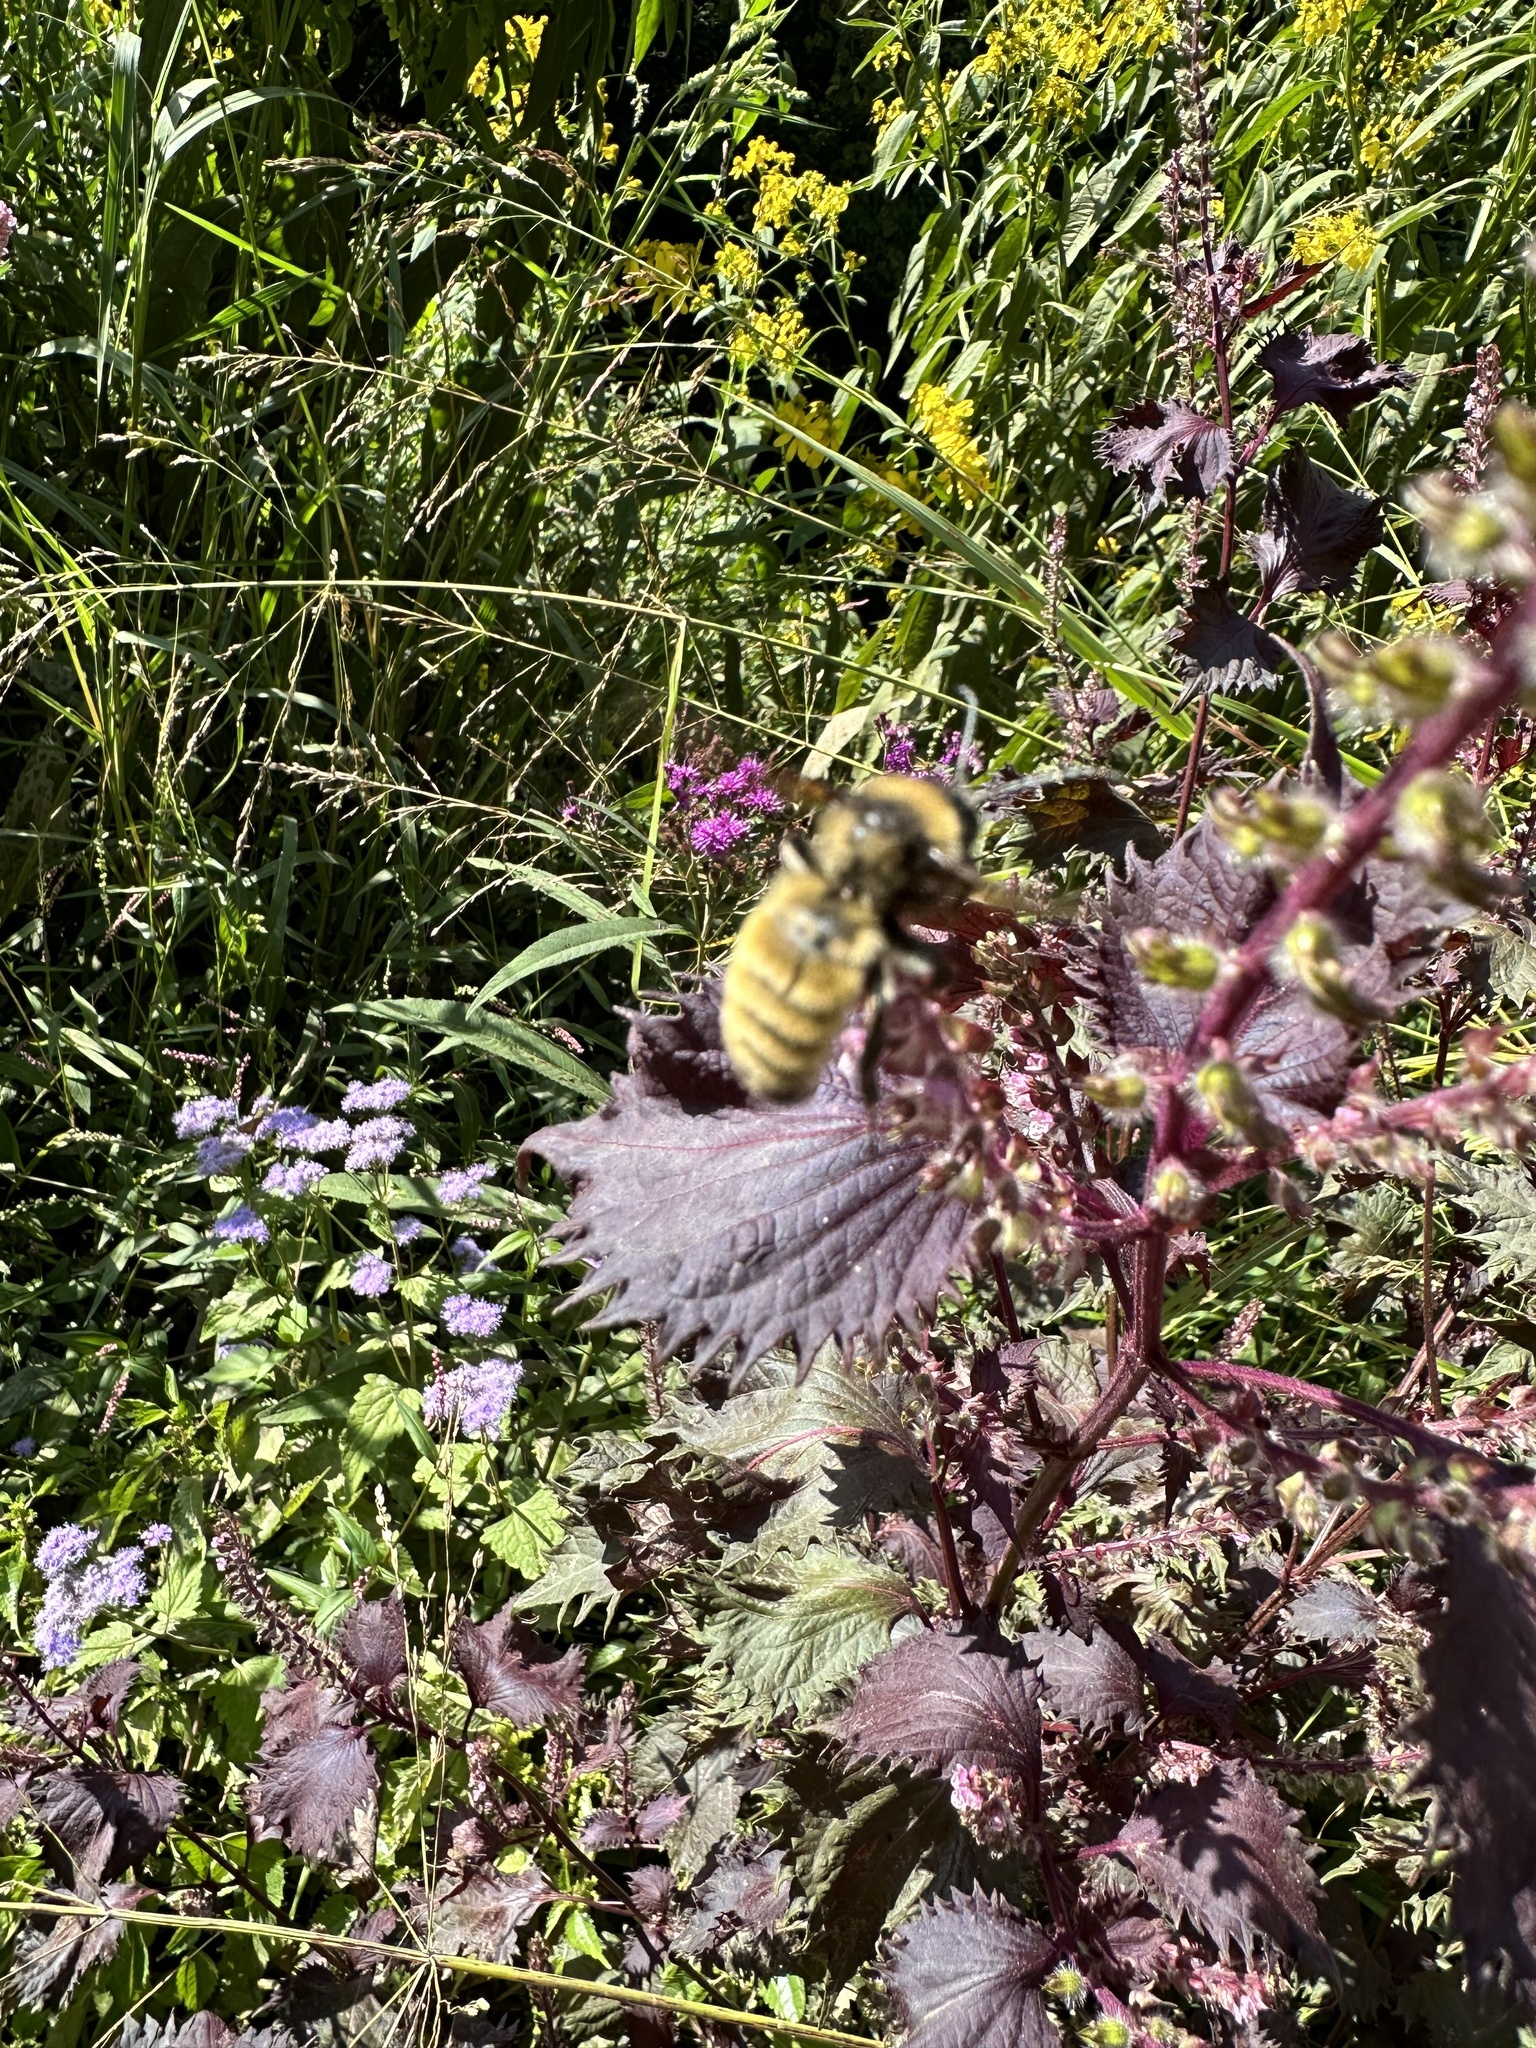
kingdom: Animalia
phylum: Arthropoda
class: Insecta
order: Hymenoptera
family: Apidae
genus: Bombus
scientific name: Bombus pensylvanicus
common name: Bumble bee
